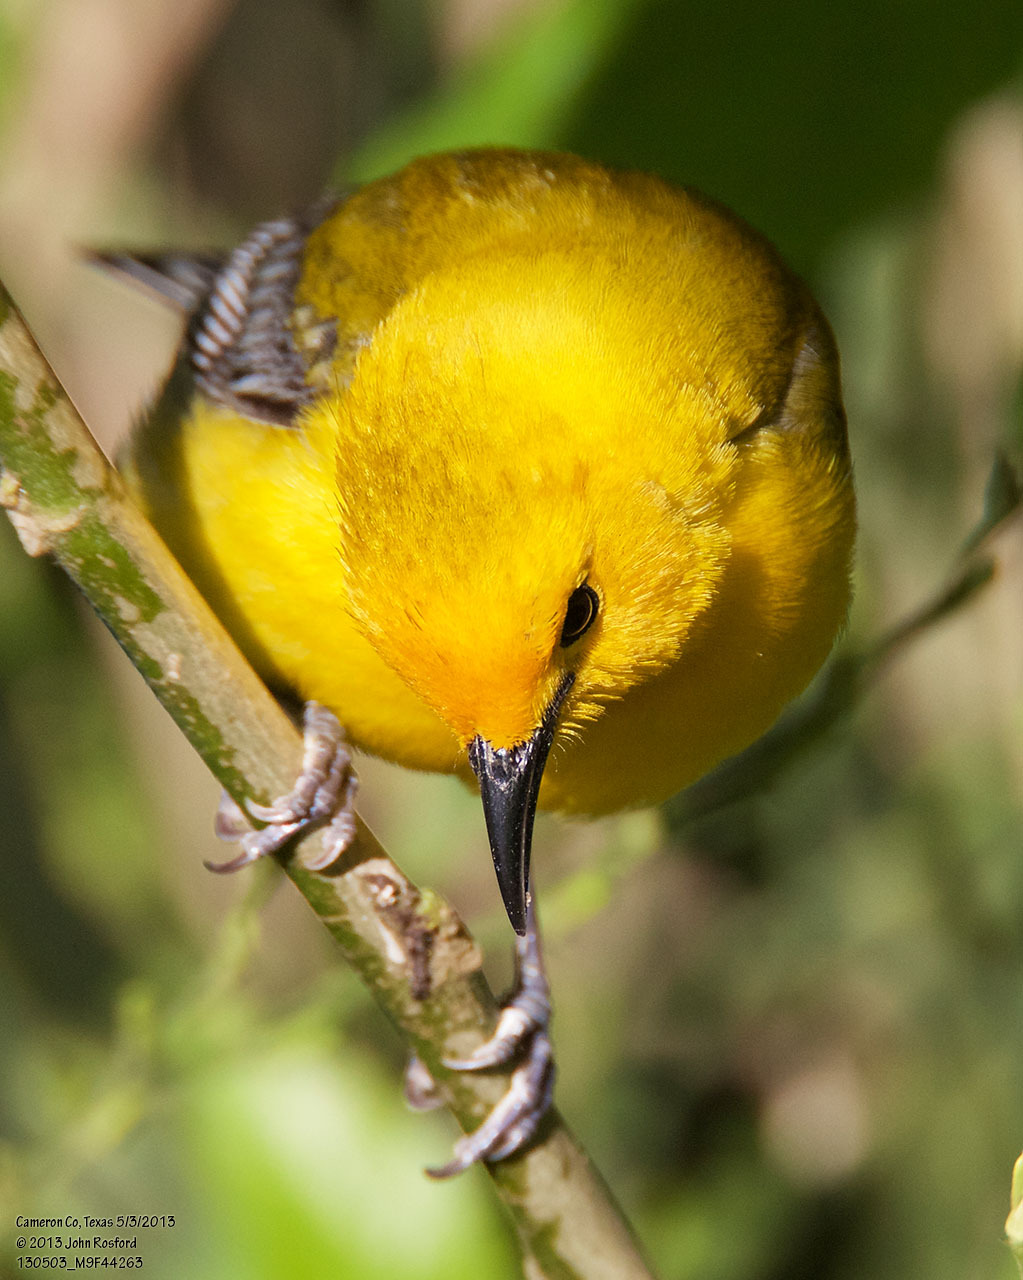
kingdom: Animalia
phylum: Chordata
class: Aves
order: Passeriformes
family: Parulidae
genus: Protonotaria
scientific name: Protonotaria citrea
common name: Prothonotary warbler
